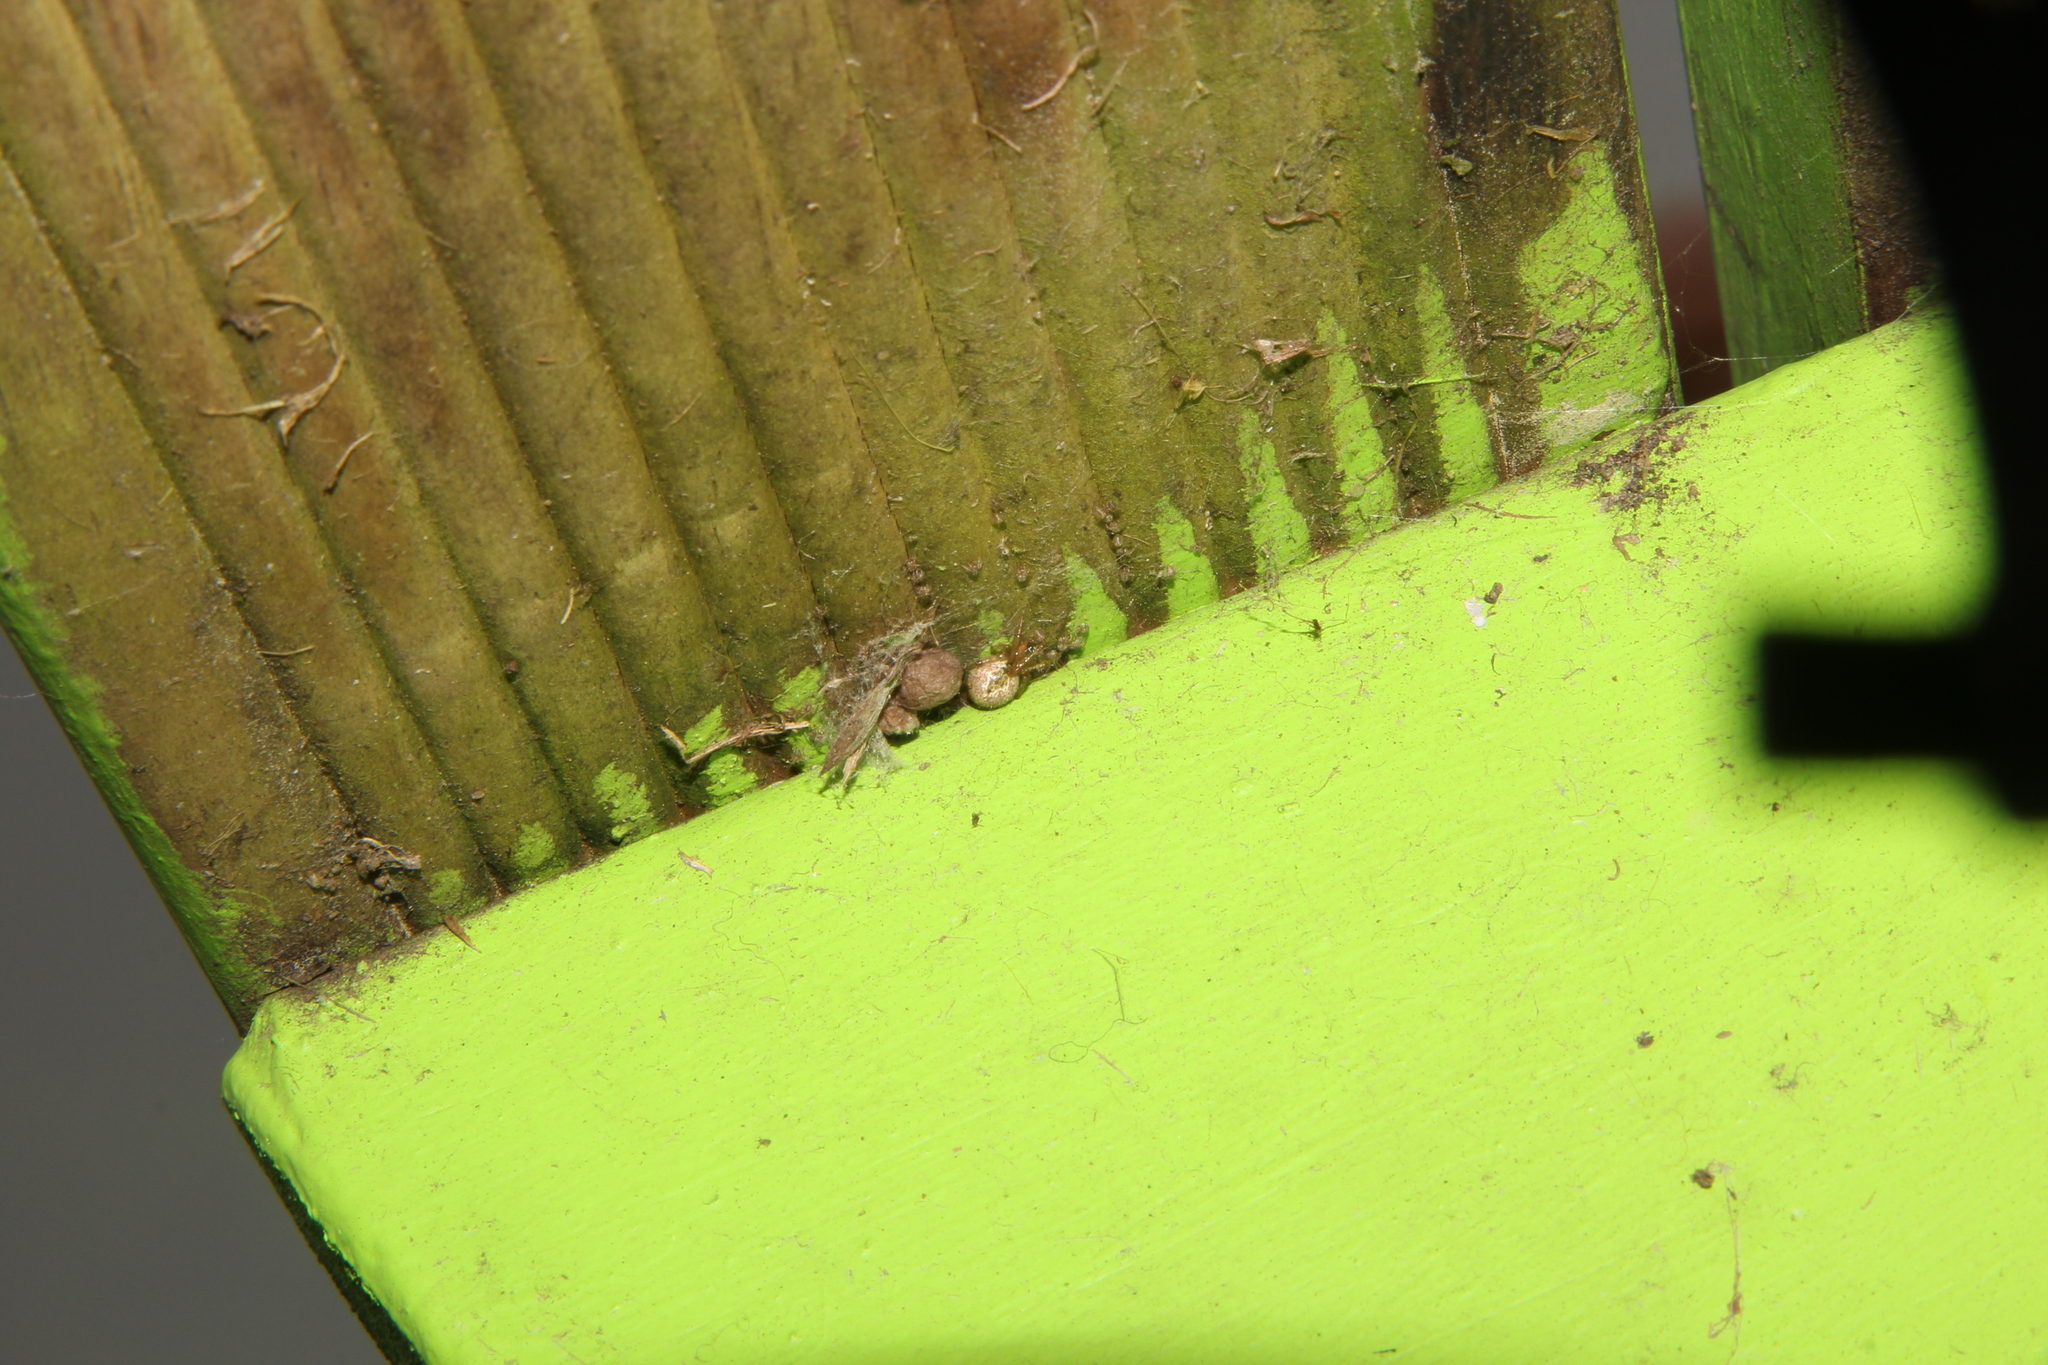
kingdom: Animalia
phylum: Arthropoda
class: Arachnida
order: Araneae
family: Theridiidae
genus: Cryptachaea
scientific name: Cryptachaea veruculata
